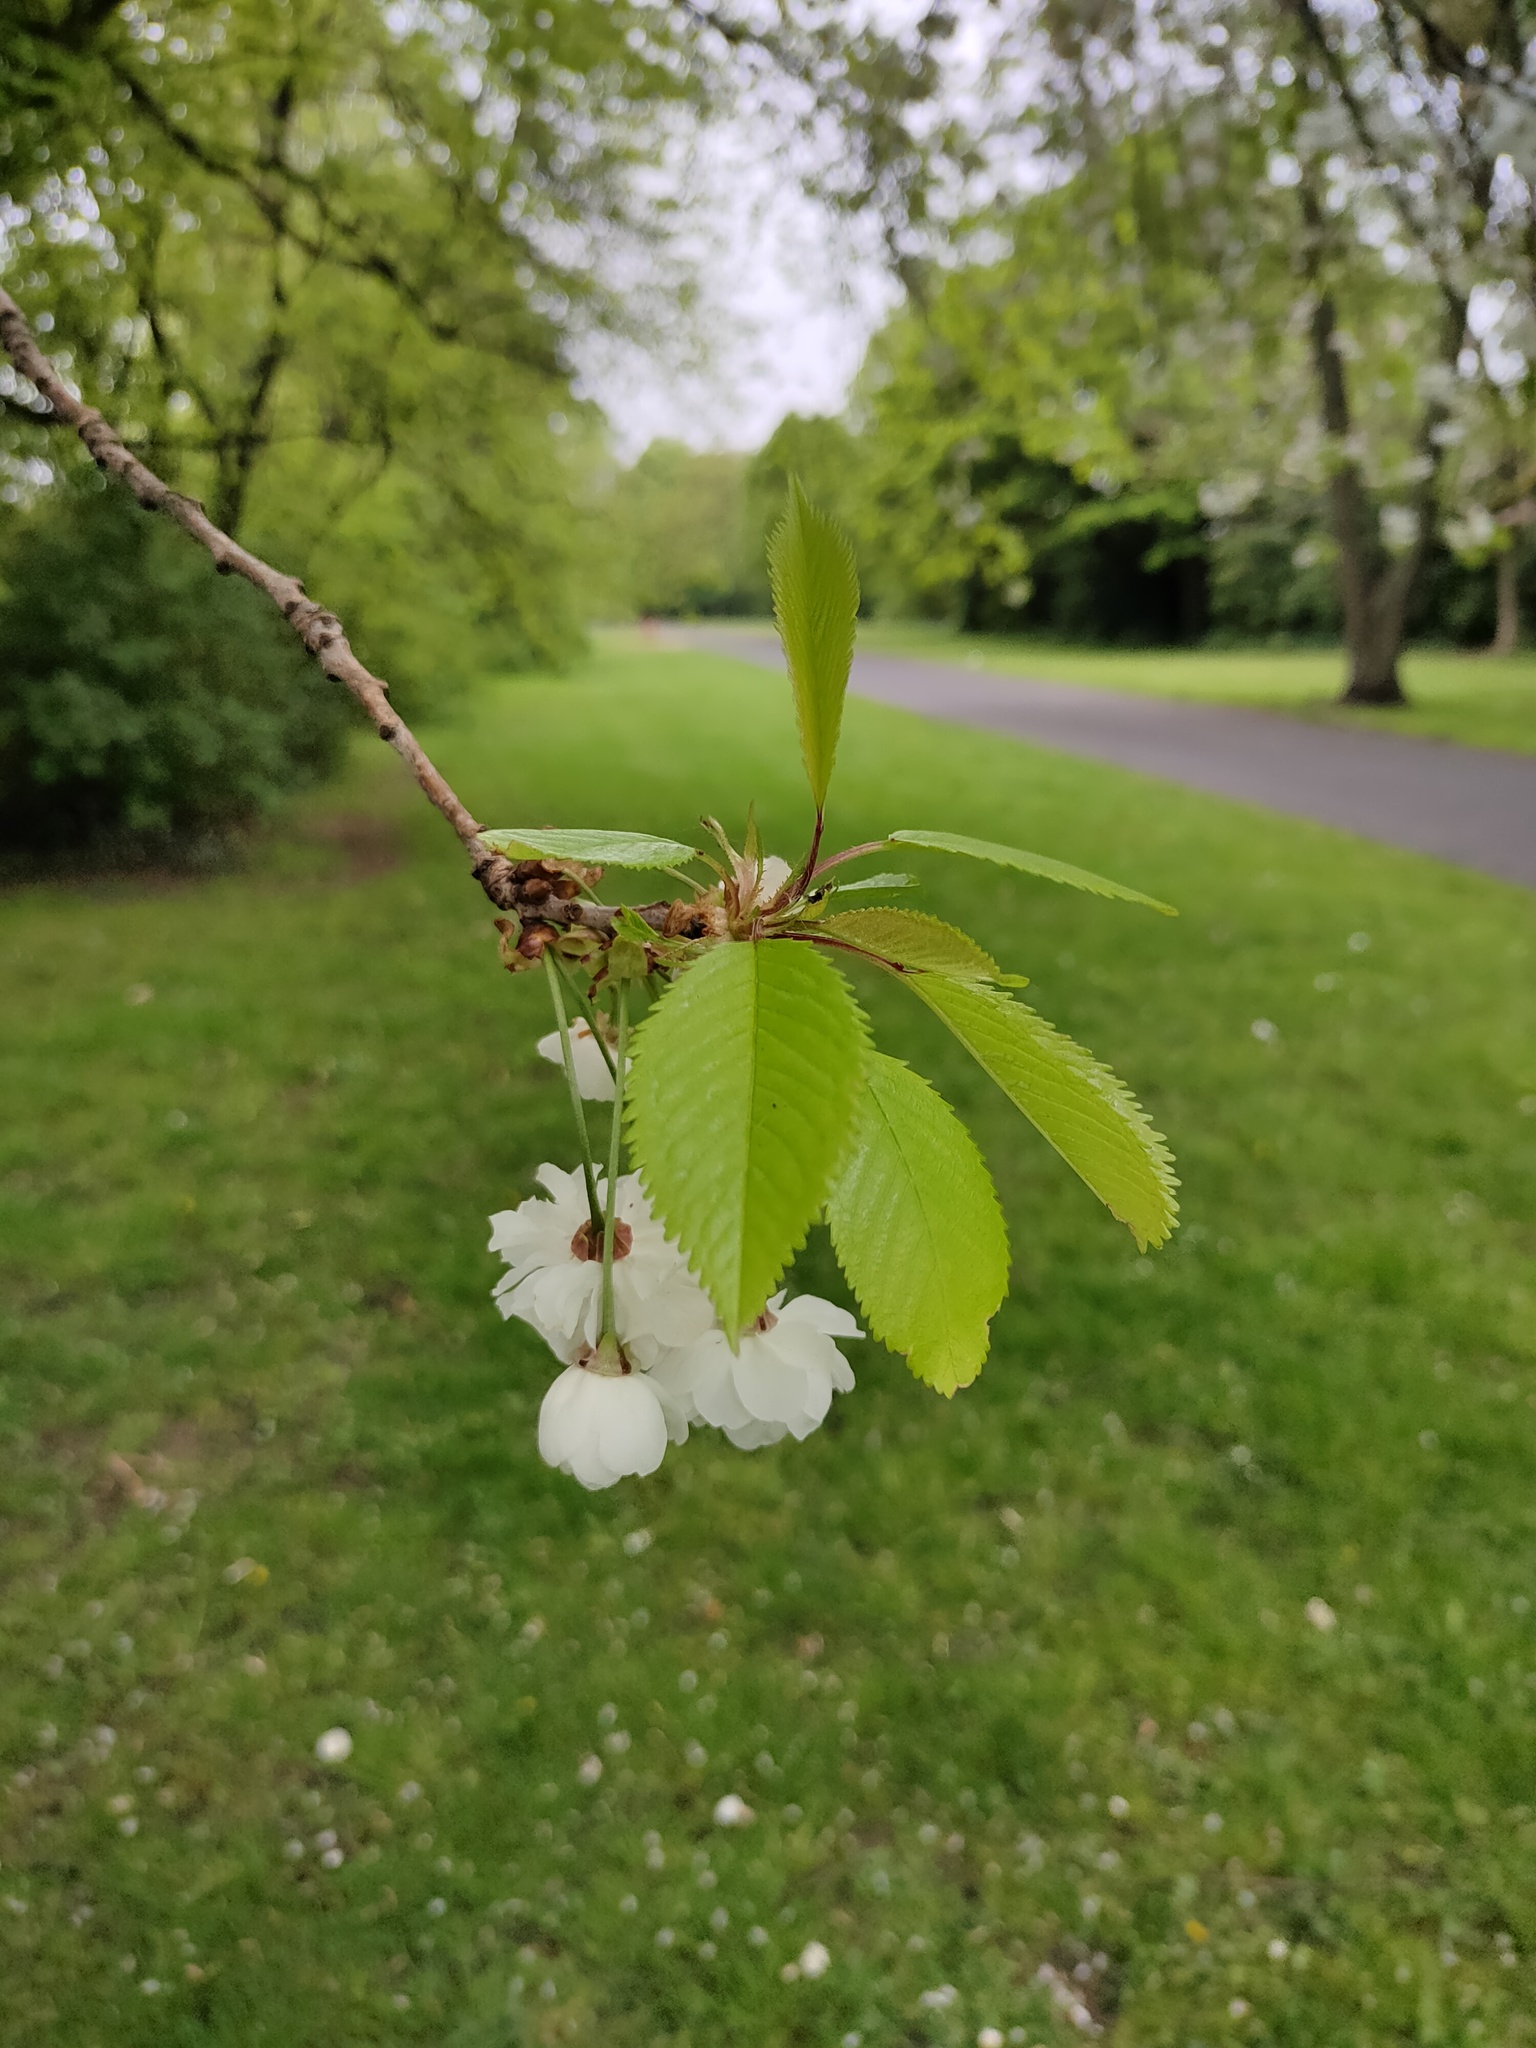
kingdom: Plantae
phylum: Tracheophyta
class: Magnoliopsida
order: Rosales
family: Rosaceae
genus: Prunus
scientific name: Prunus avium
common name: Sweet cherry
